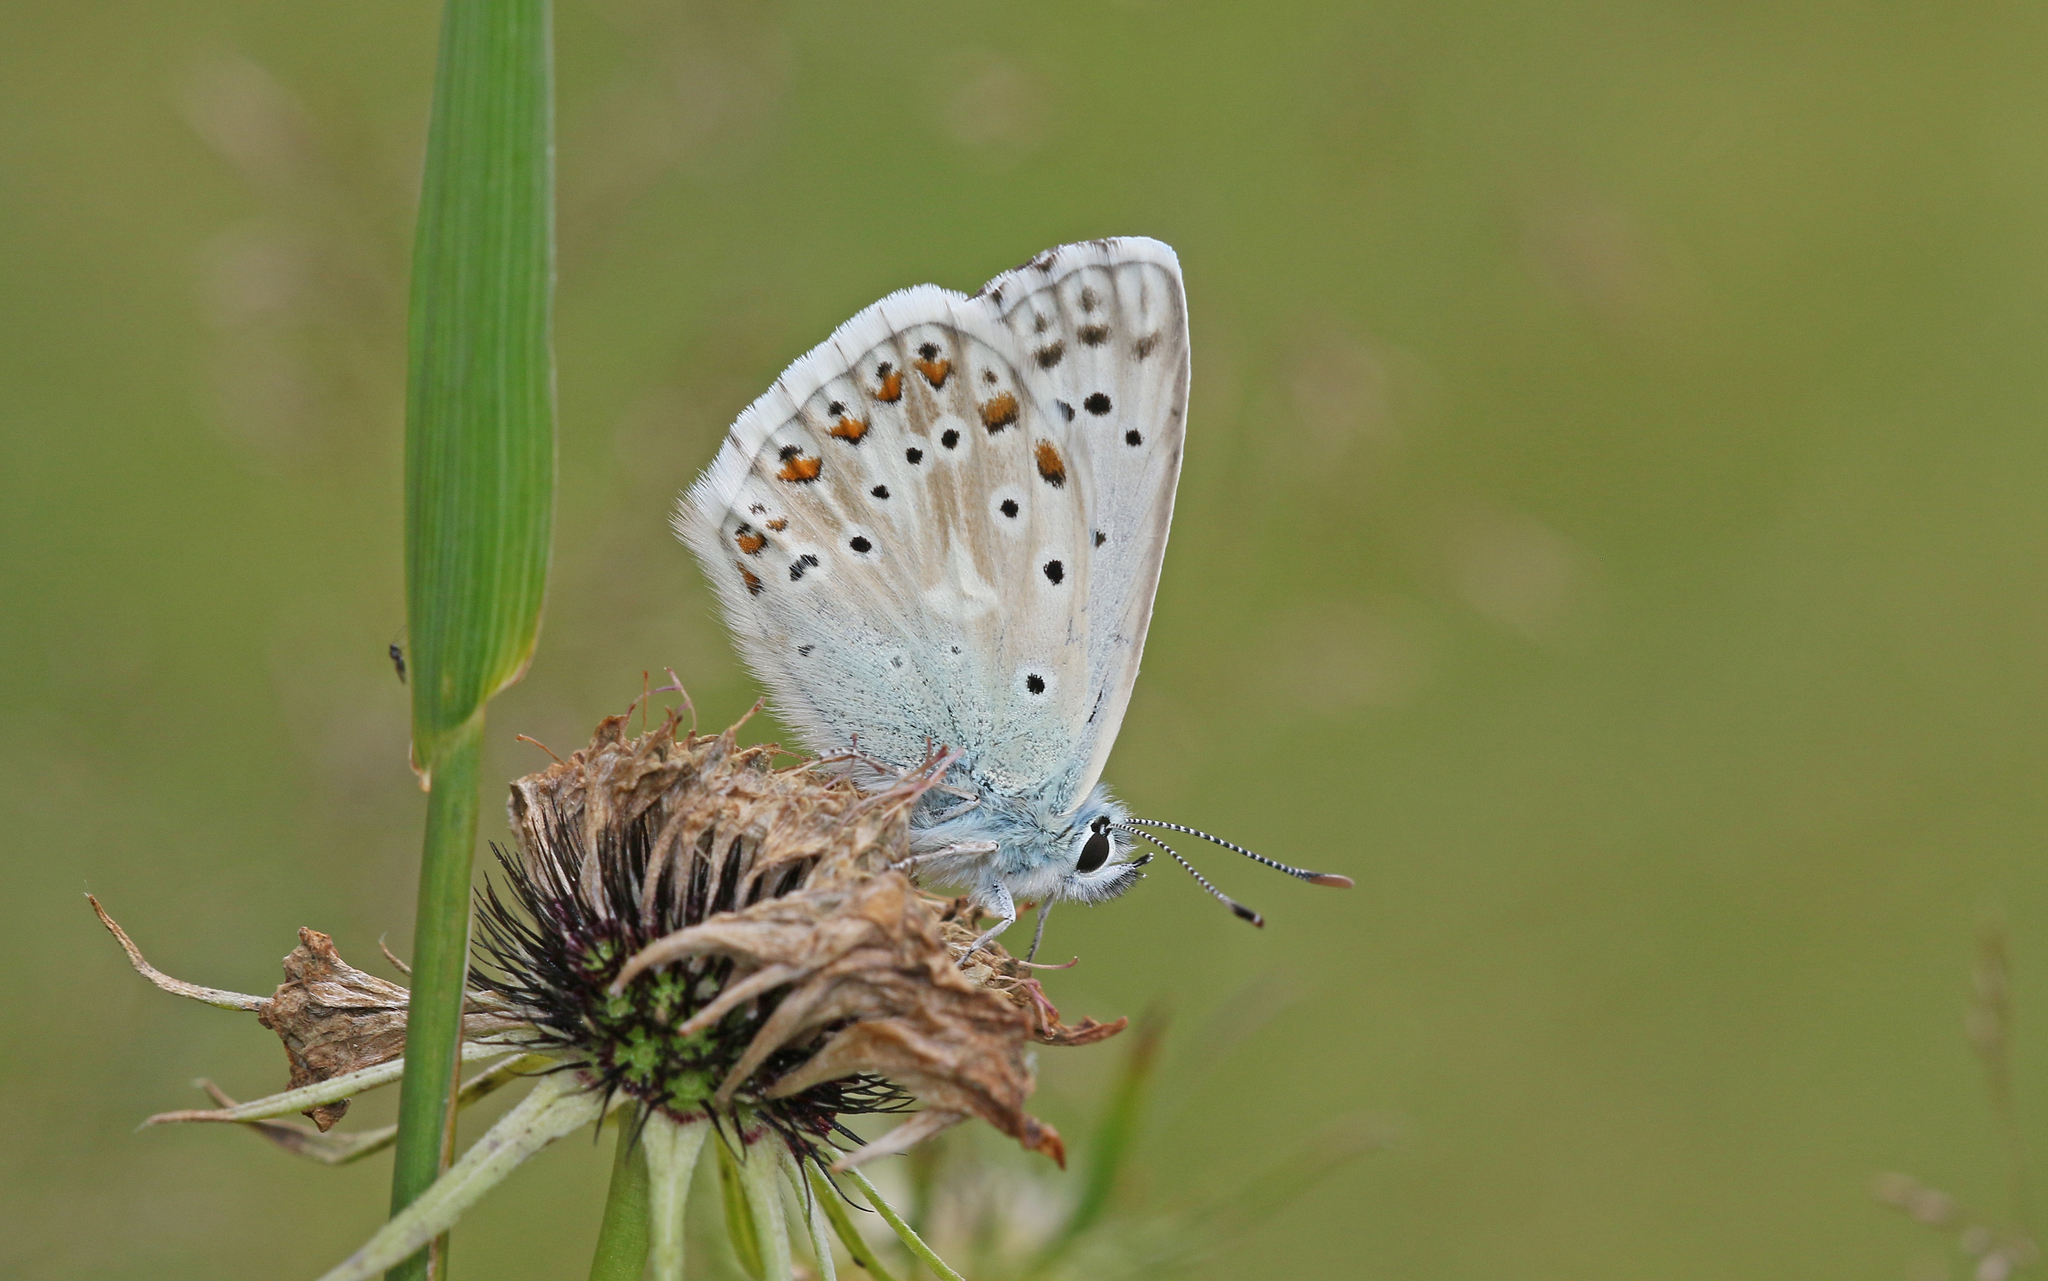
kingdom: Animalia
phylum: Arthropoda
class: Insecta
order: Lepidoptera
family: Lycaenidae
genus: Lysandra
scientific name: Lysandra coridon
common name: Chalkhill blue
